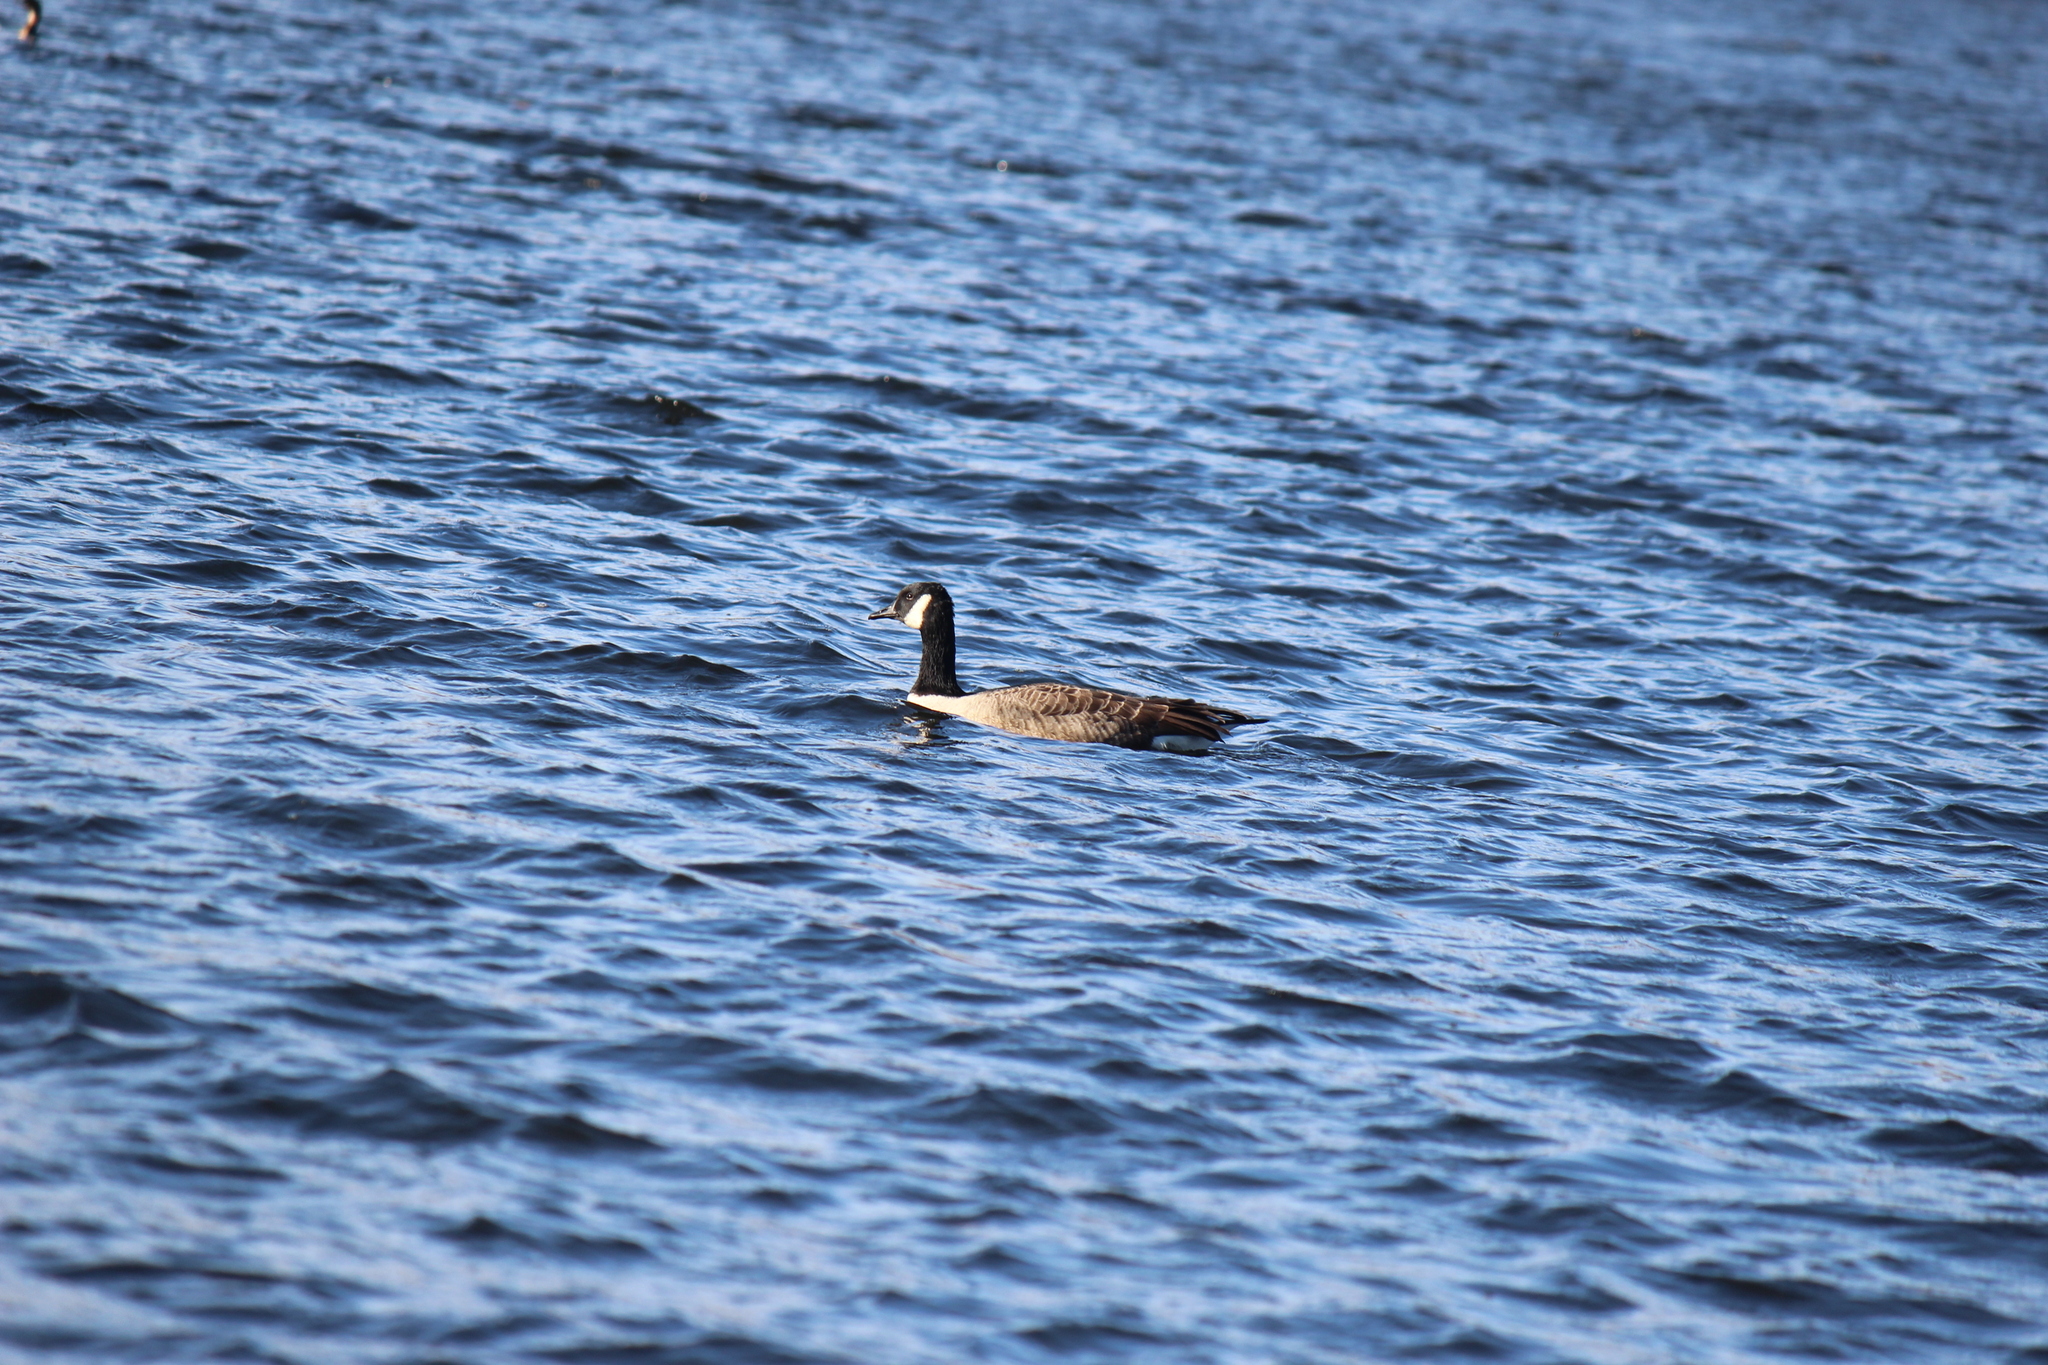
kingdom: Animalia
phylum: Chordata
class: Aves
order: Anseriformes
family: Anatidae
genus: Branta
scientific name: Branta canadensis
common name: Canada goose
